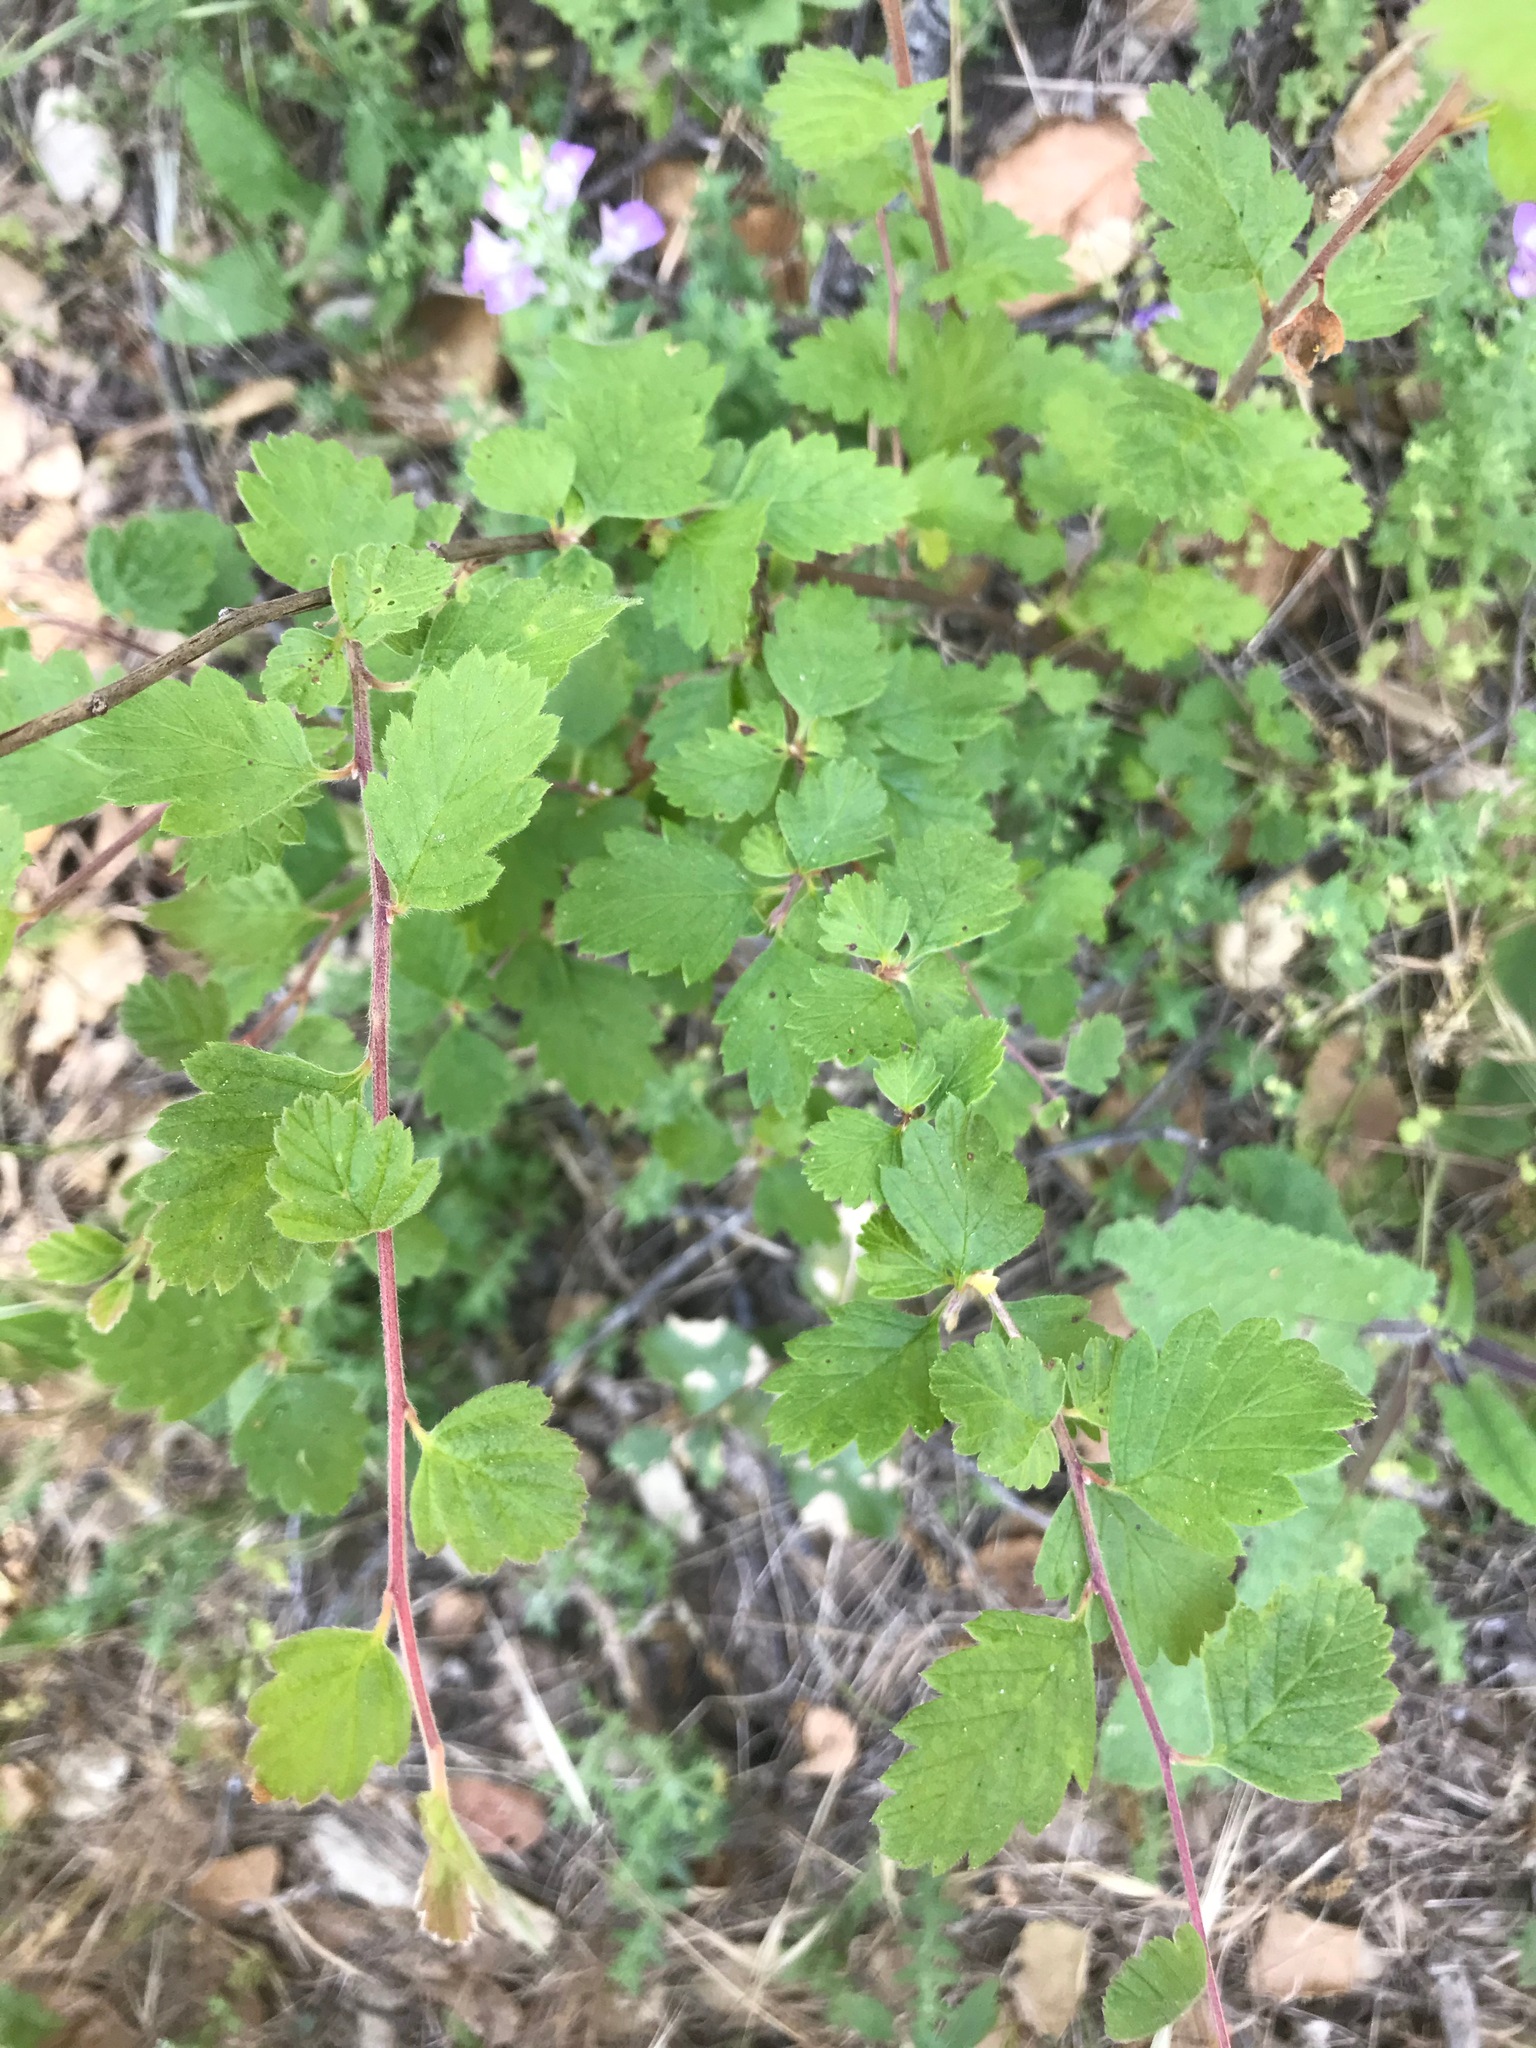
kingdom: Plantae
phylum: Tracheophyta
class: Magnoliopsida
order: Rosales
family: Rosaceae
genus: Holodiscus
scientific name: Holodiscus discolor
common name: Oceanspray
